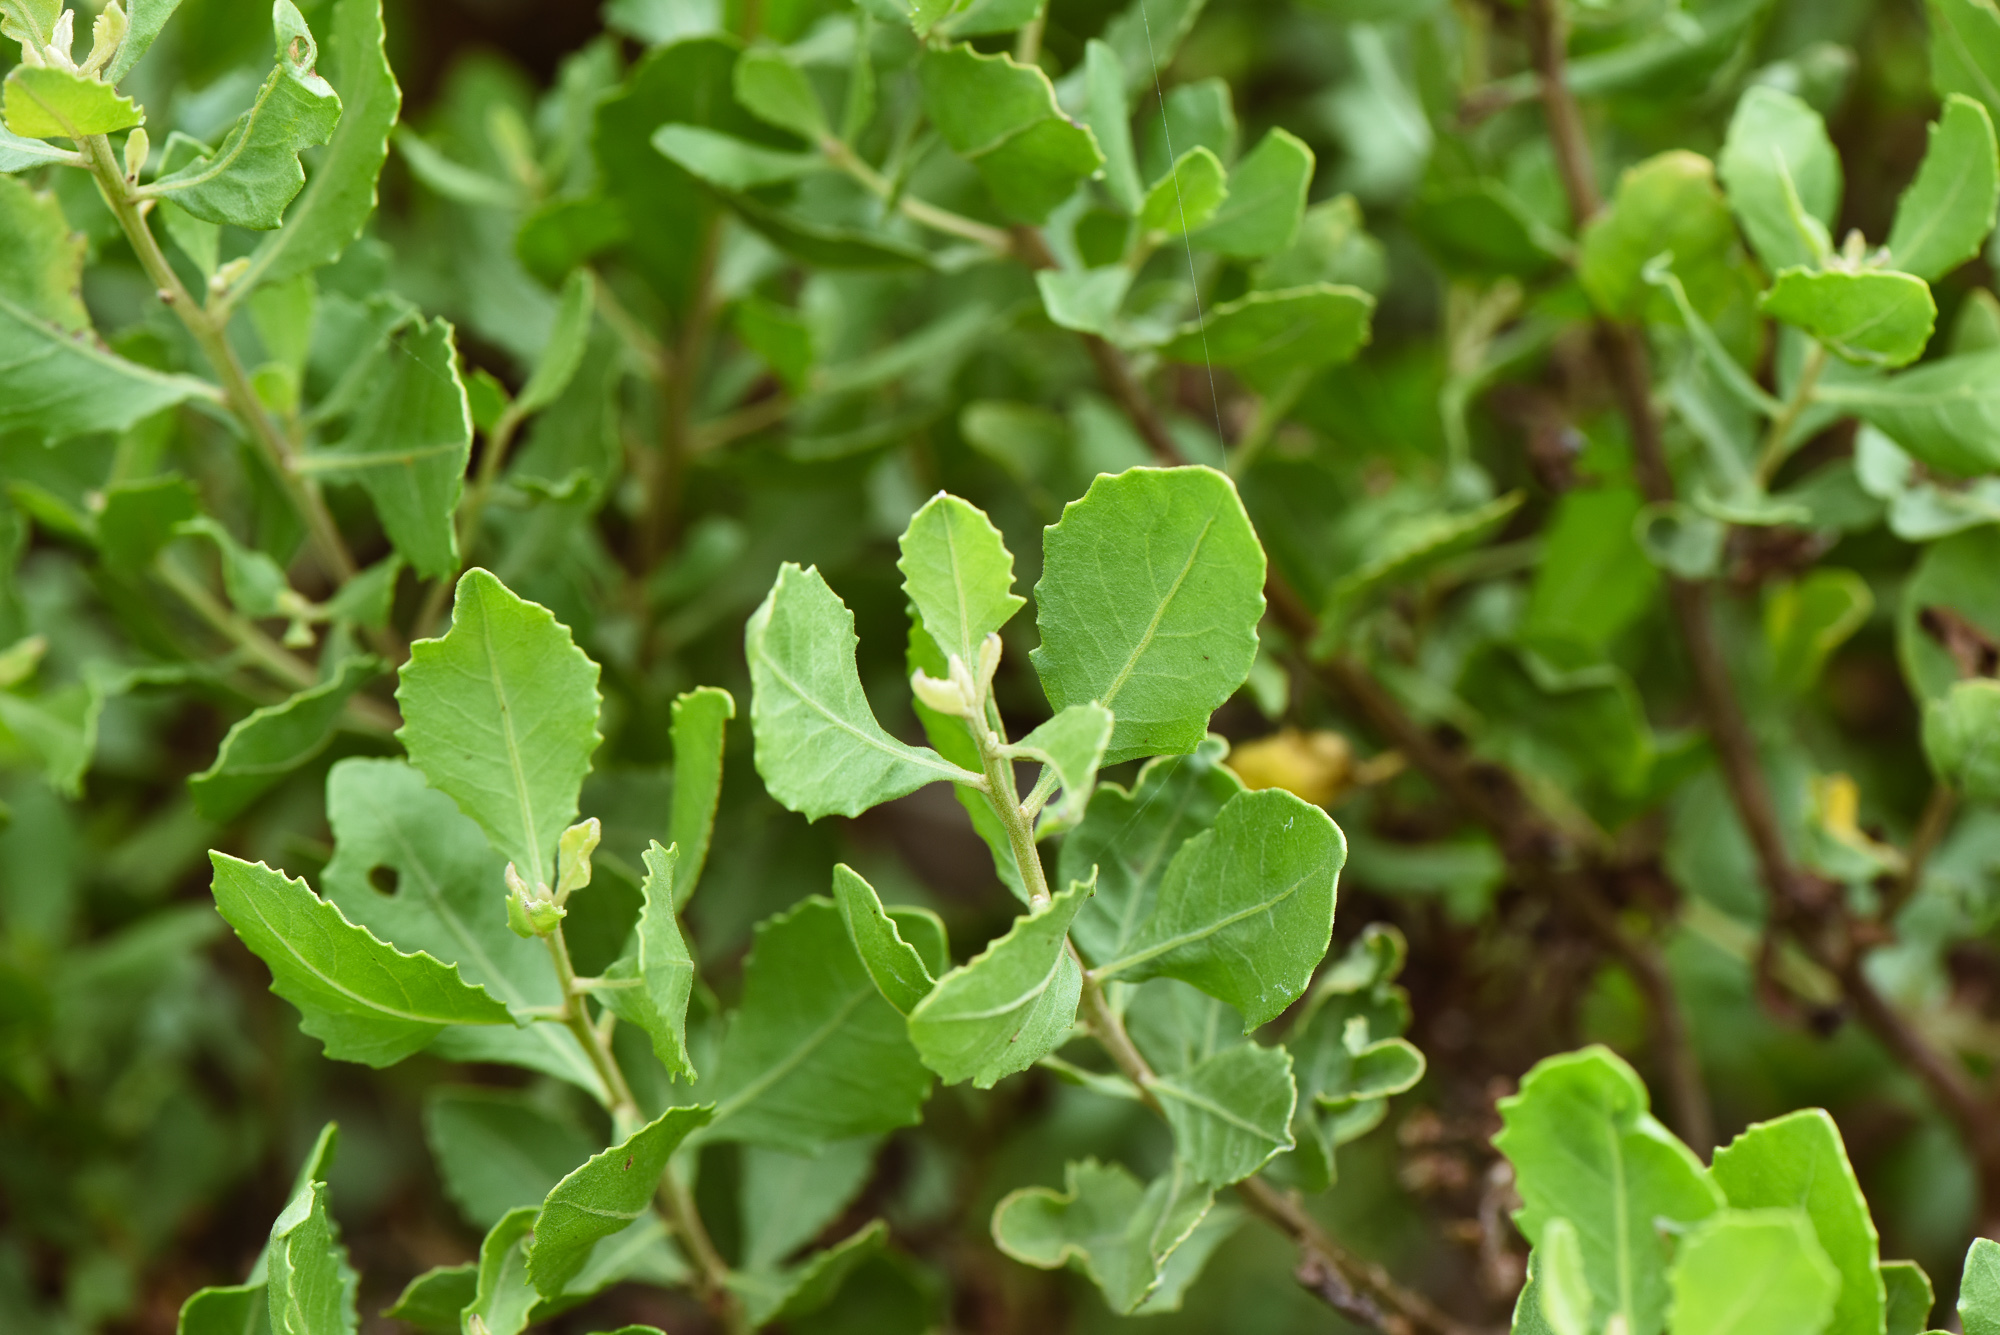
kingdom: Plantae
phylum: Tracheophyta
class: Magnoliopsida
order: Asterales
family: Asteraceae
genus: Pluchea
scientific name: Pluchea indica
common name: Indian fleabane
